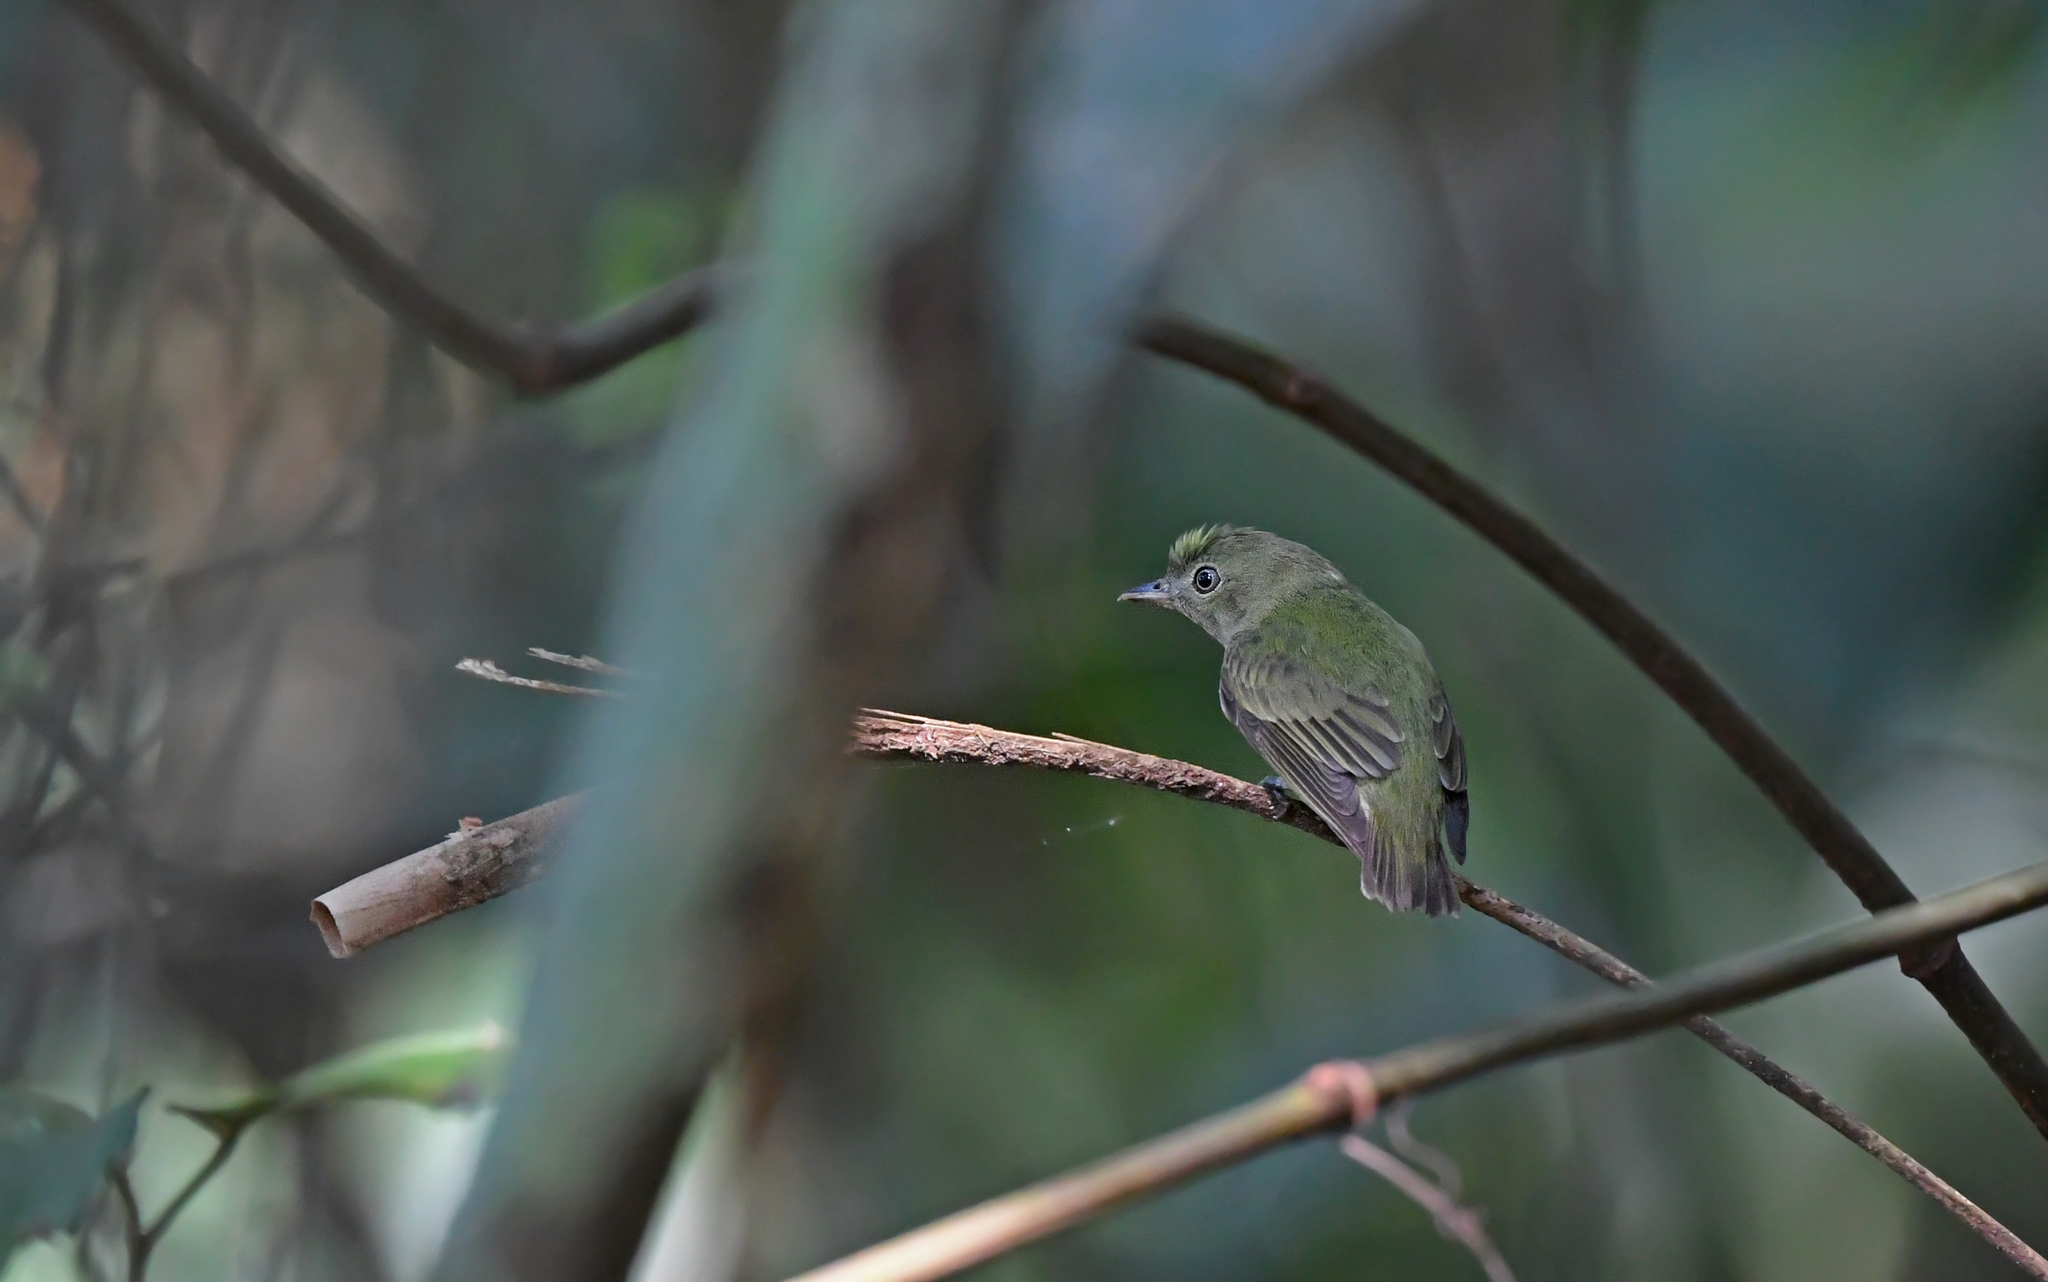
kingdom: Animalia
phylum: Chordata
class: Aves
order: Passeriformes
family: Pipridae
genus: Tyranneutes
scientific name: Tyranneutes stolzmanni
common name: Dwarf tyrant-manakin
